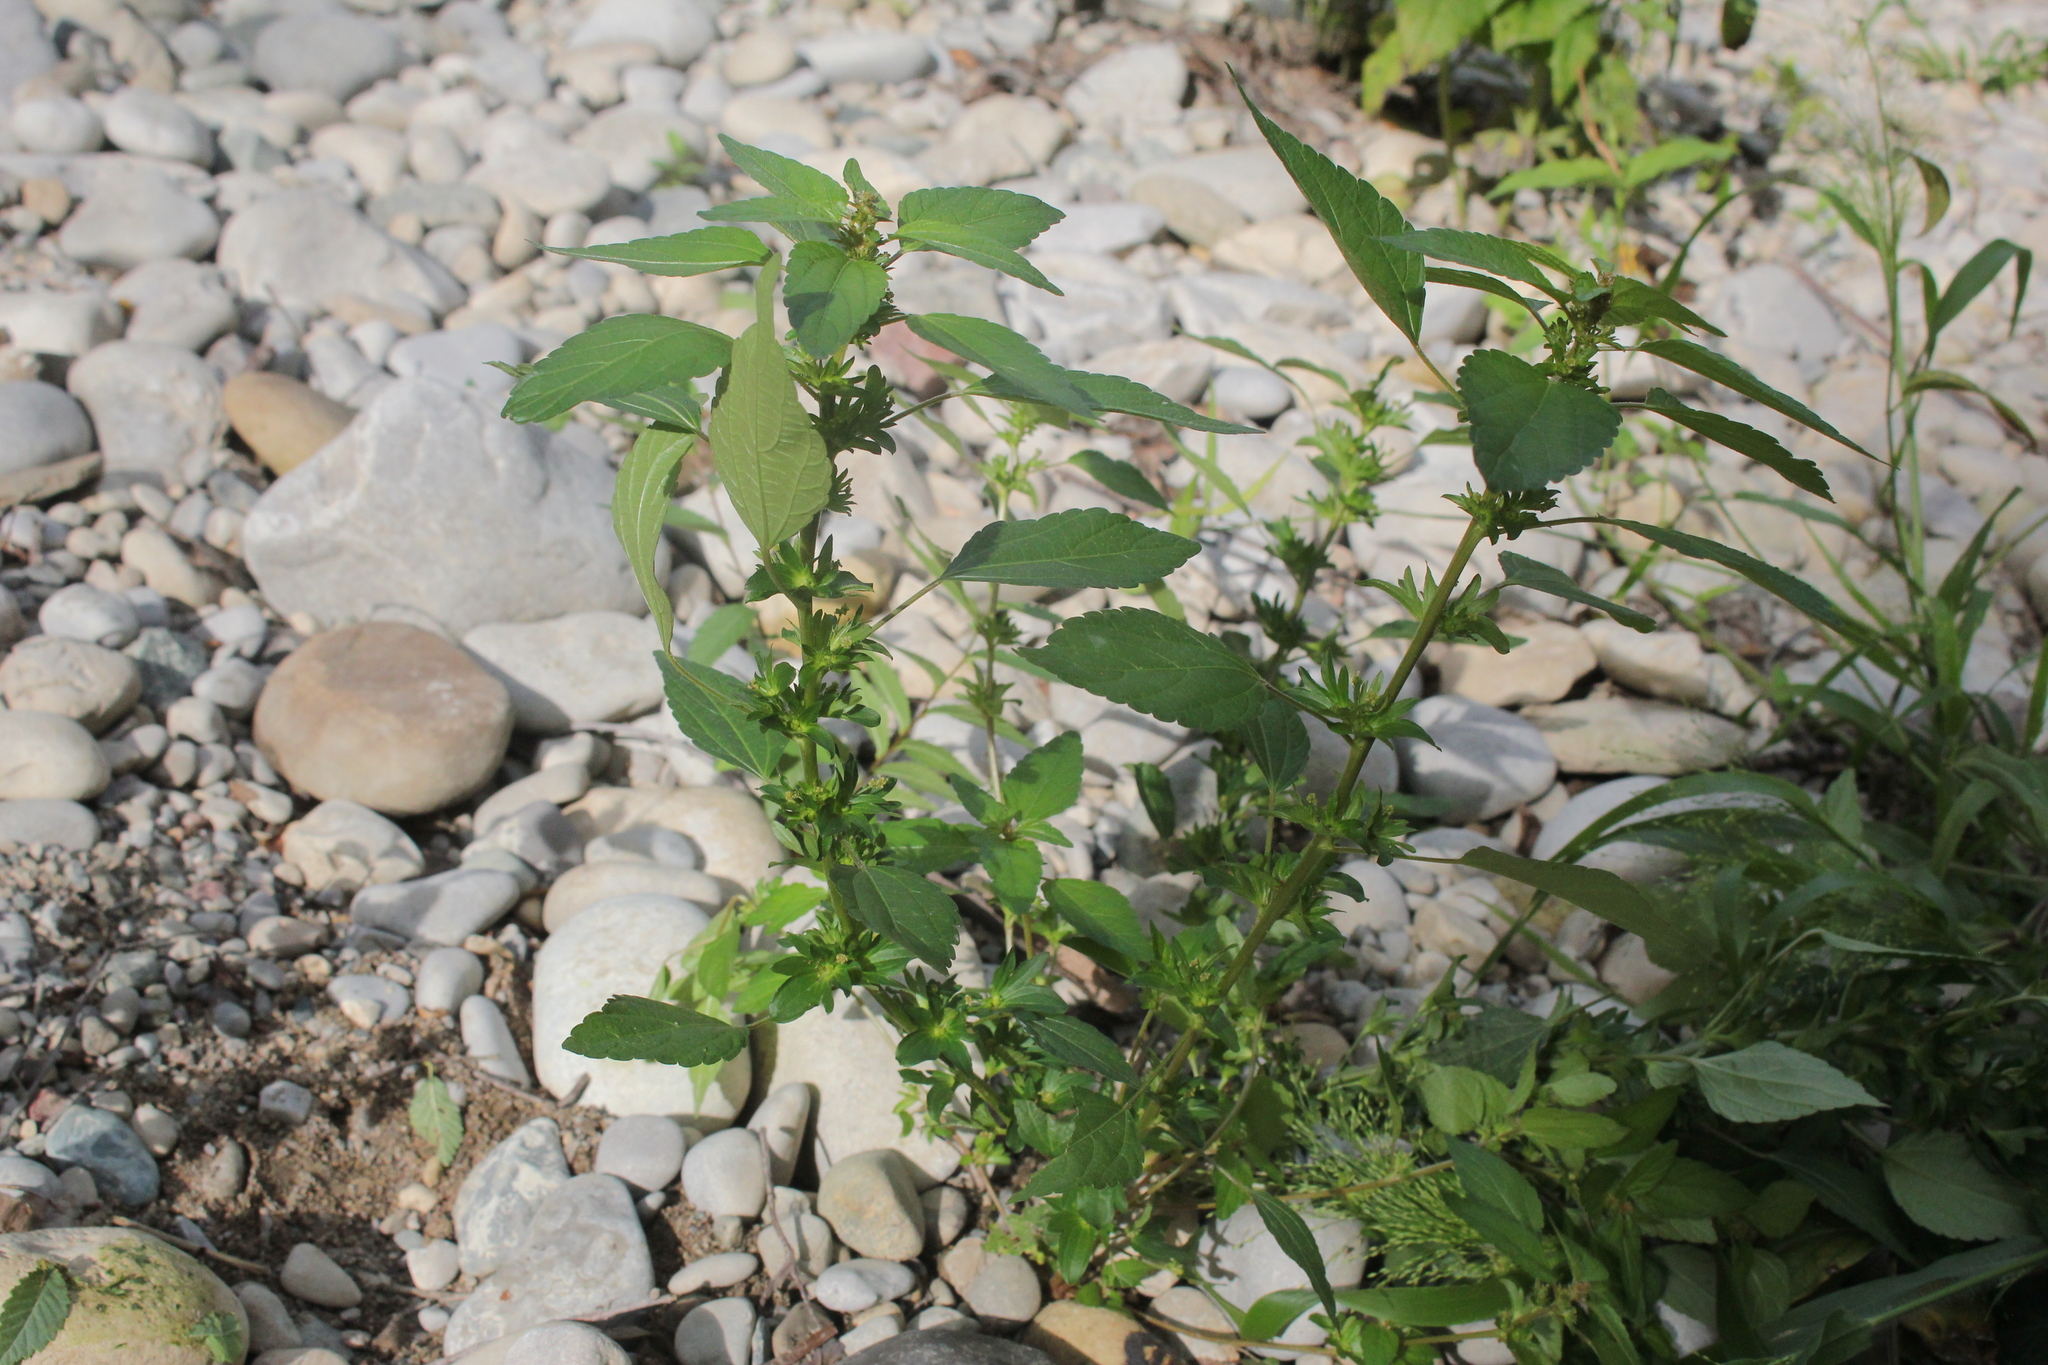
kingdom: Plantae
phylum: Tracheophyta
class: Magnoliopsida
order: Malpighiales
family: Euphorbiaceae
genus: Acalypha
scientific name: Acalypha rhomboidea
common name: Rhombic copperleaf
